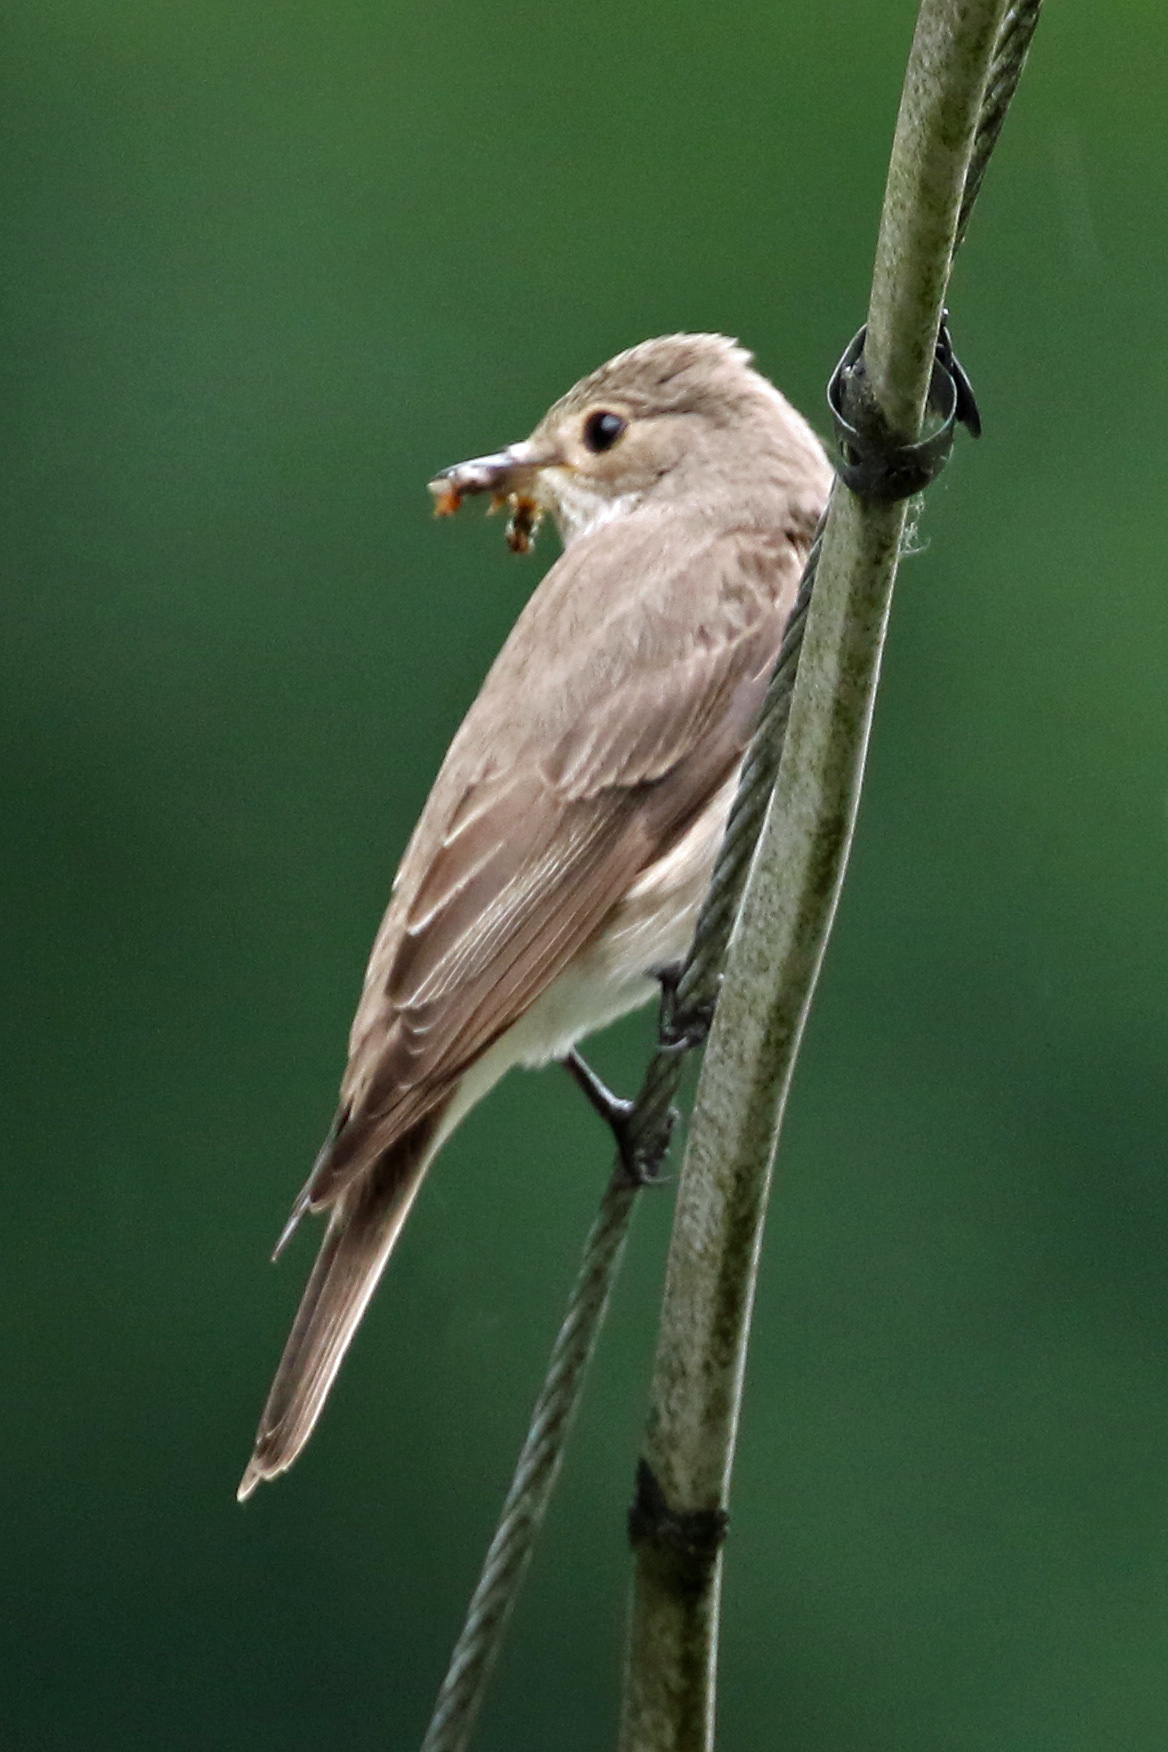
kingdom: Animalia
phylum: Chordata
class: Aves
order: Passeriformes
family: Muscicapidae
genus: Muscicapa
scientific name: Muscicapa striata
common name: Spotted flycatcher
